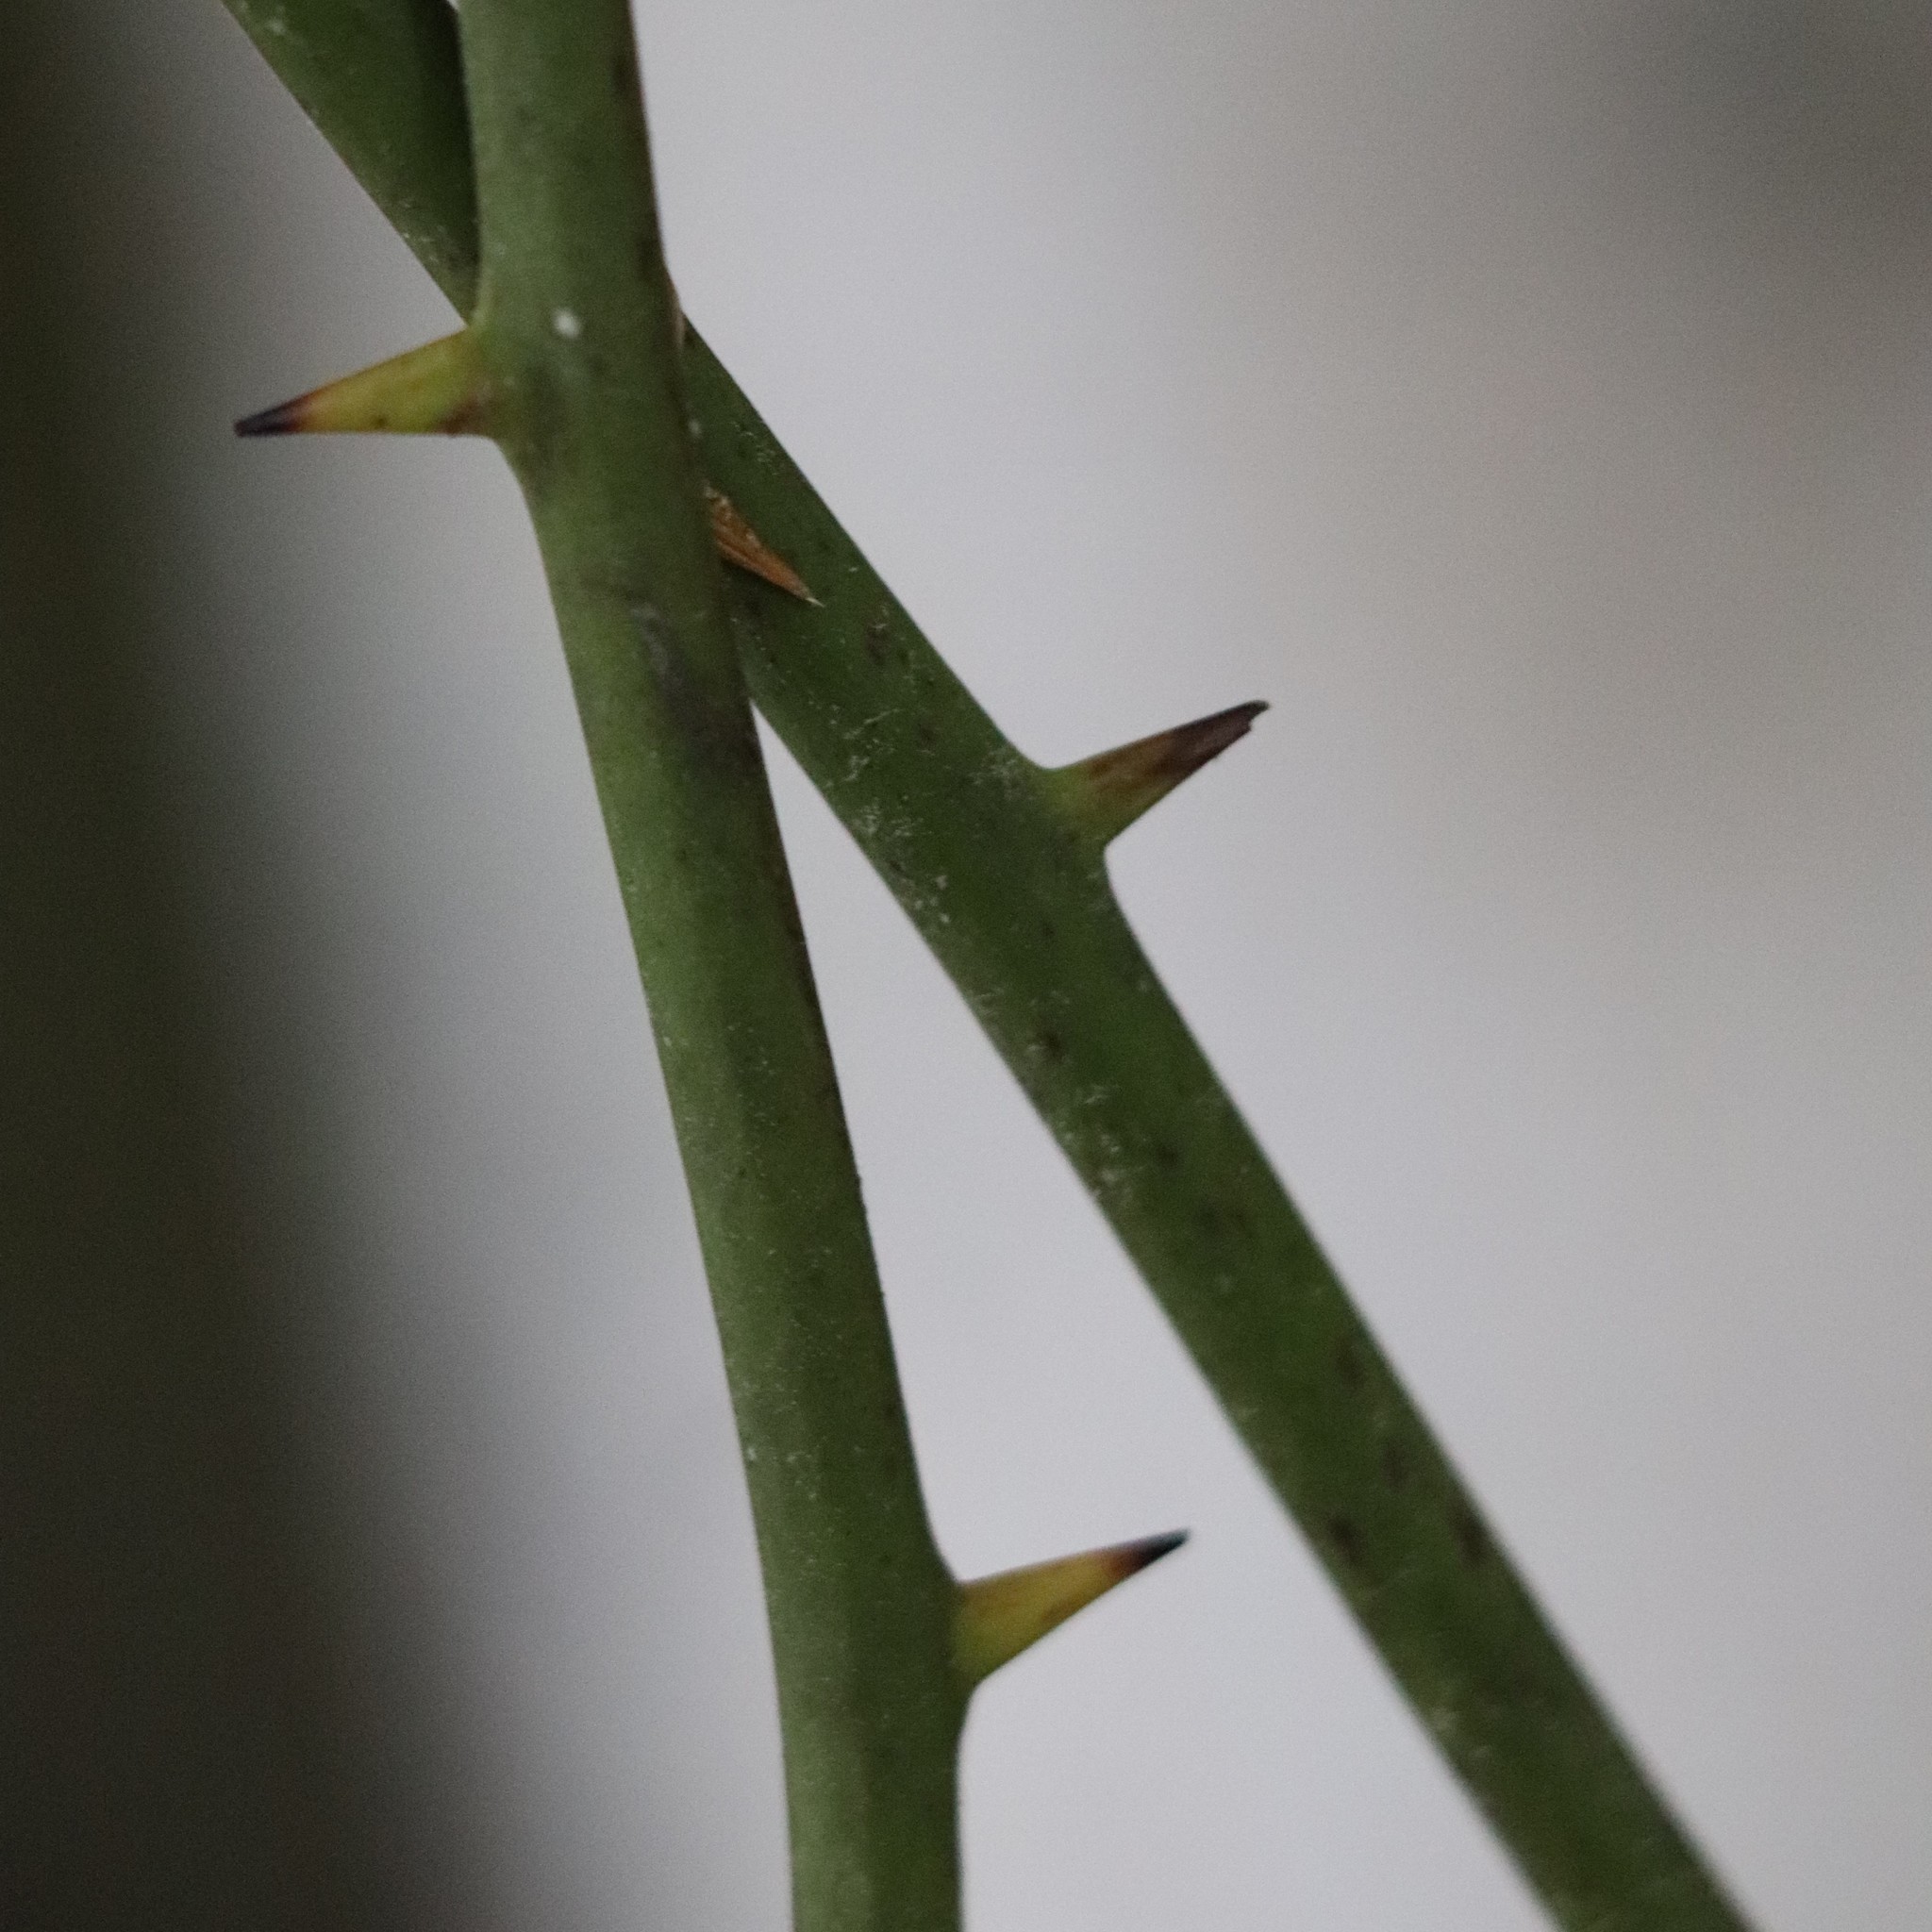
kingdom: Plantae
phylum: Tracheophyta
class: Liliopsida
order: Liliales
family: Smilacaceae
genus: Smilax
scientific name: Smilax rotundifolia
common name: Bullbriar
